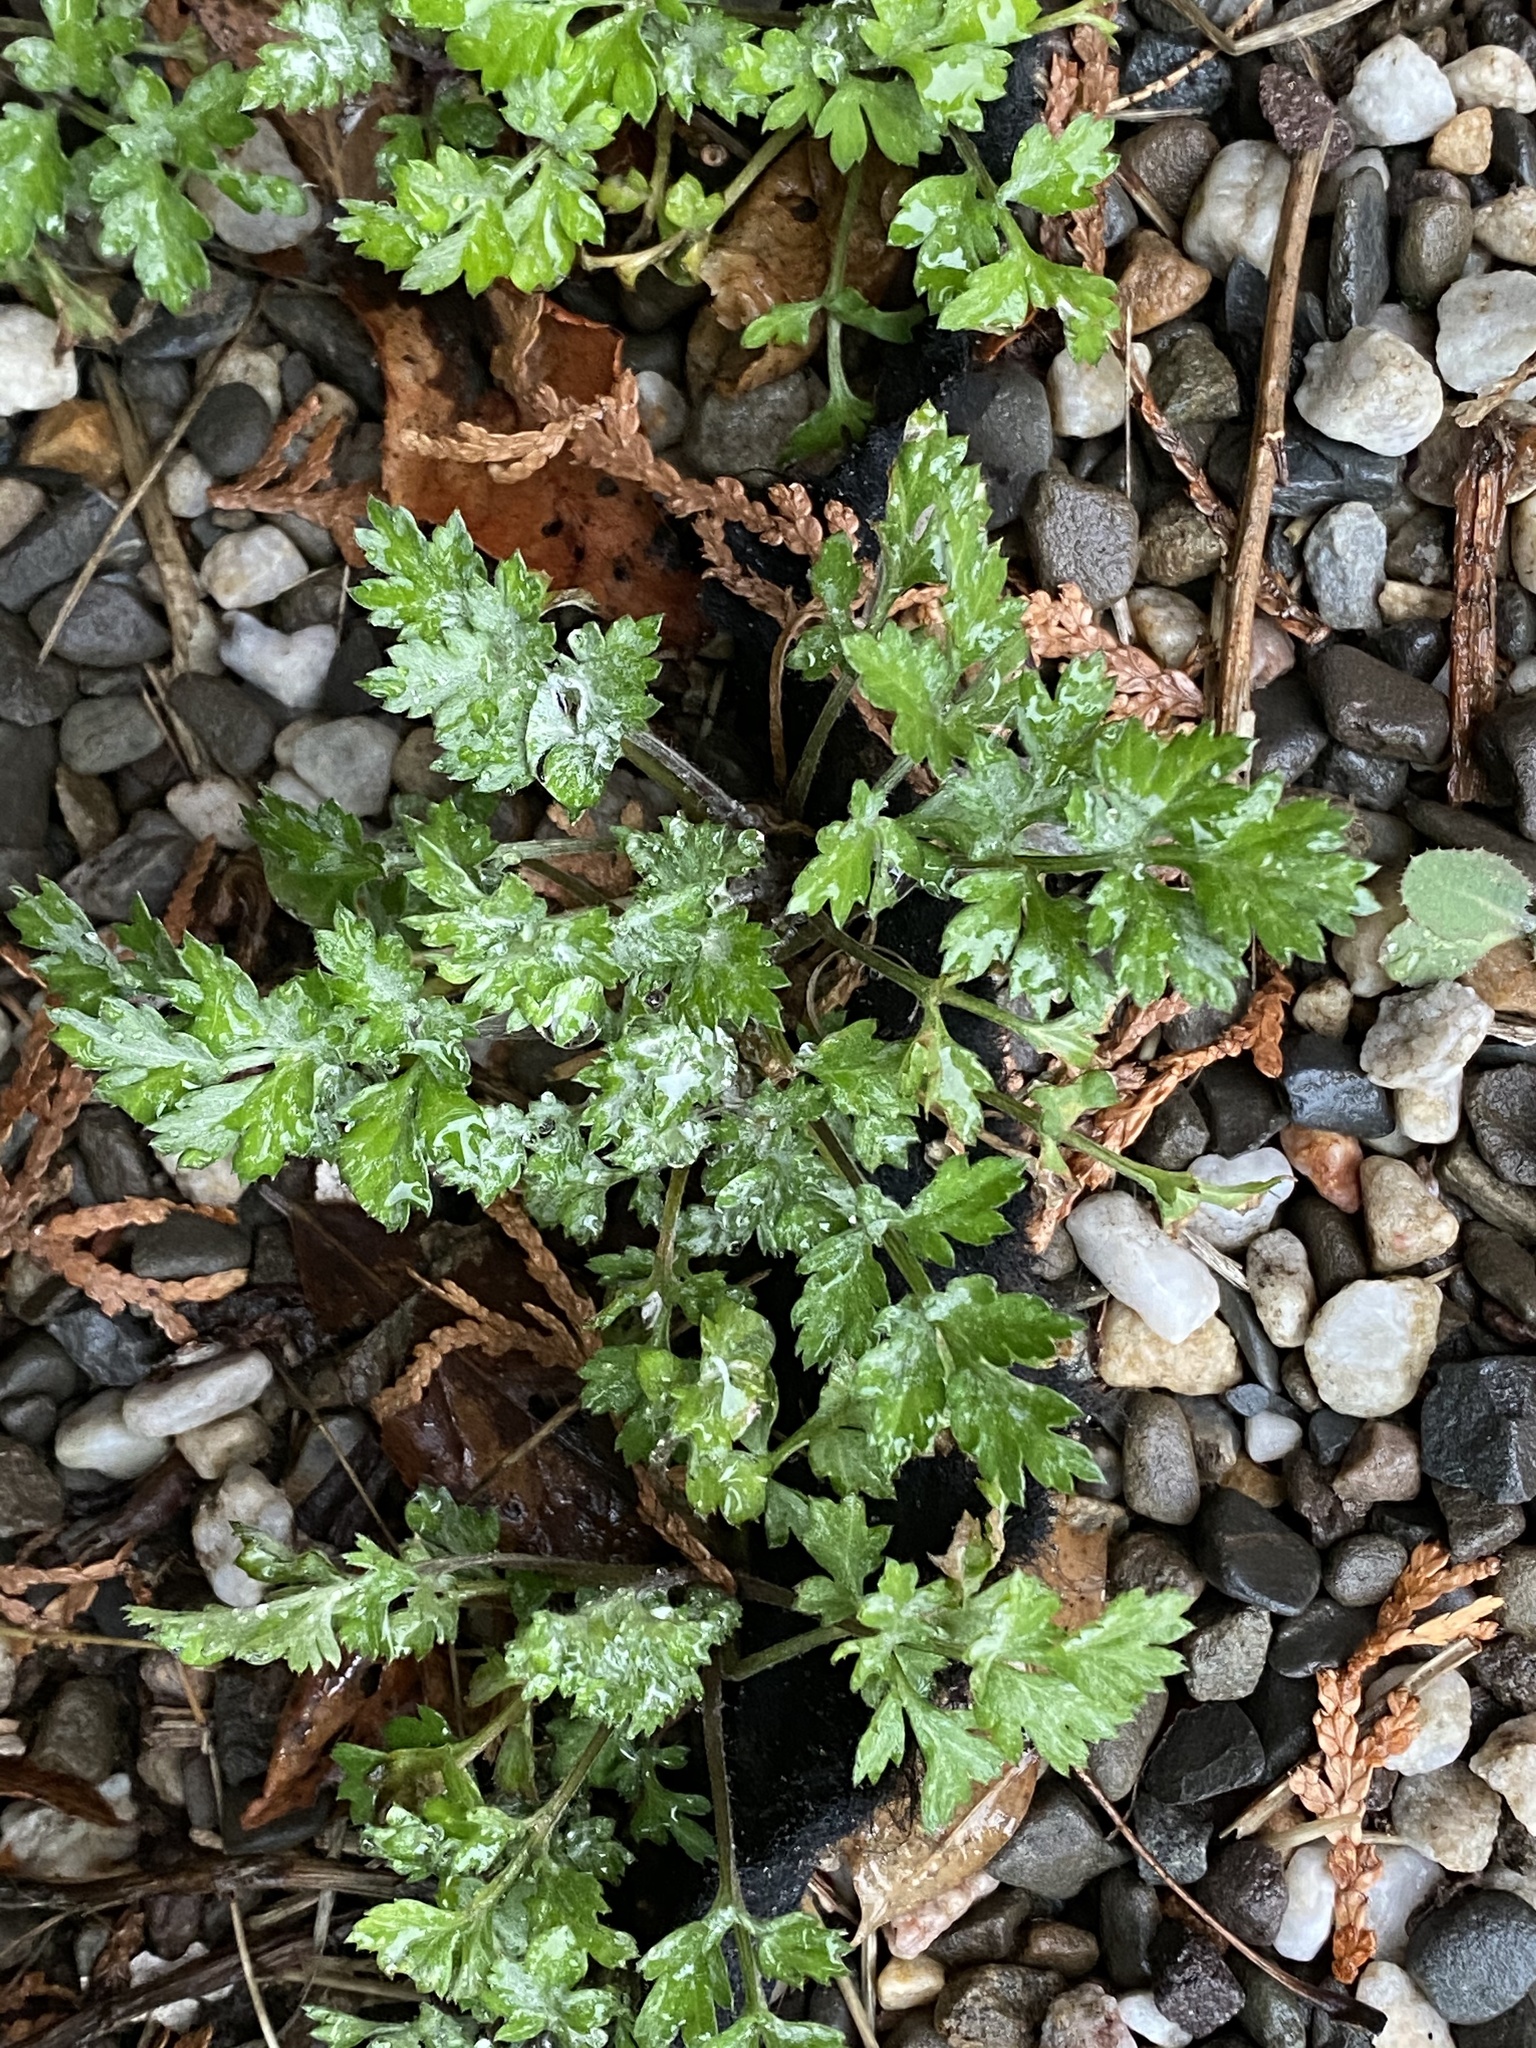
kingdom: Plantae
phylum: Tracheophyta
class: Magnoliopsida
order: Asterales
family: Asteraceae
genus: Artemisia
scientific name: Artemisia vulgaris
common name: Mugwort
